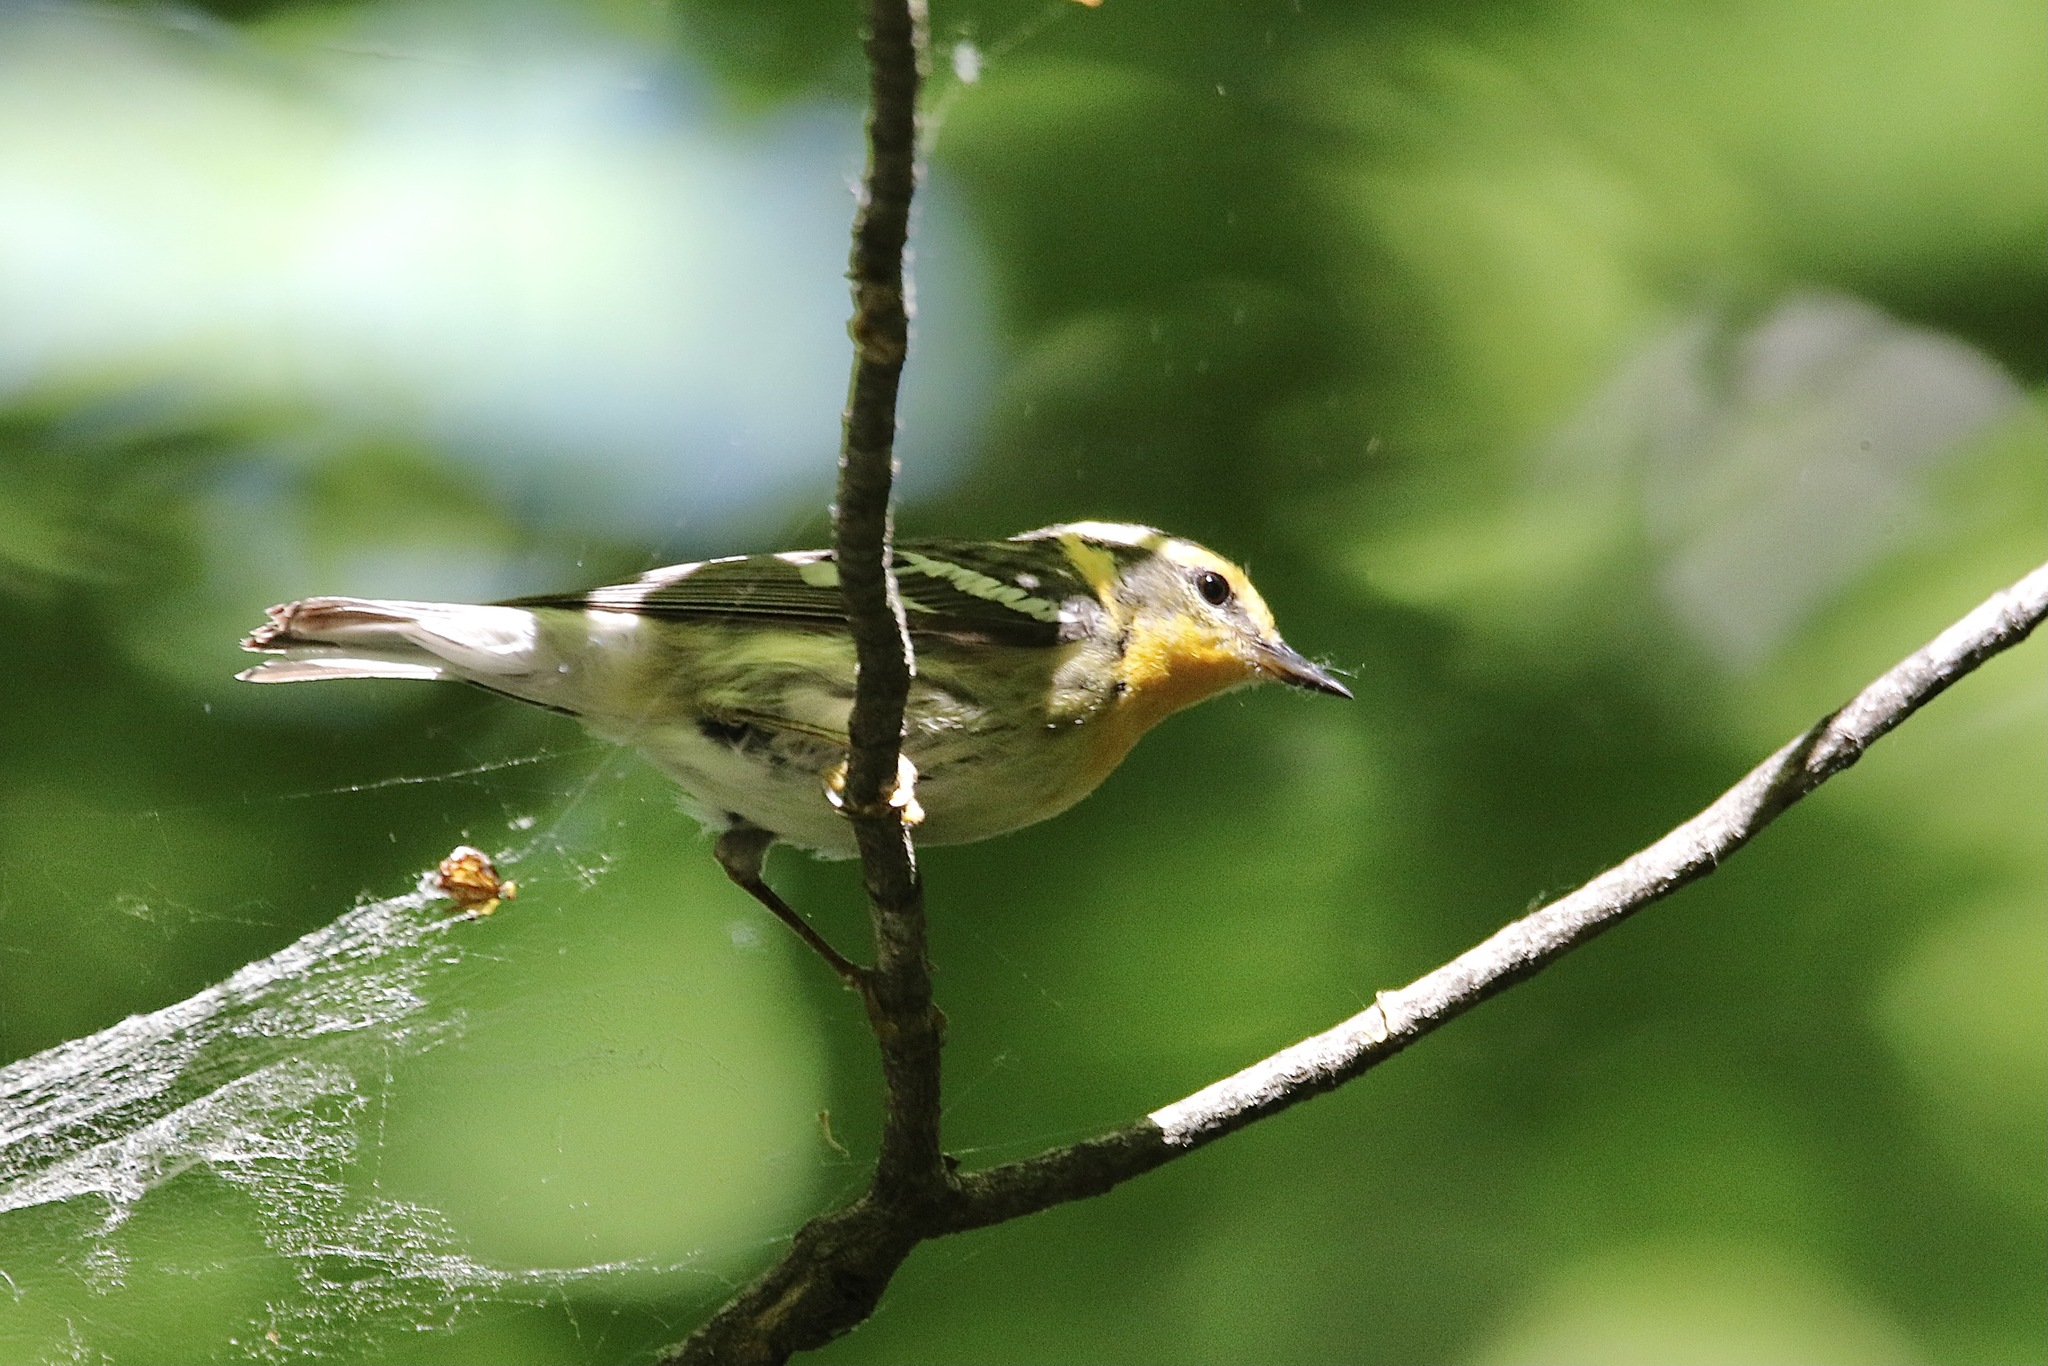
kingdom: Animalia
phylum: Chordata
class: Aves
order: Passeriformes
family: Parulidae
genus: Setophaga
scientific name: Setophaga fusca
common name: Blackburnian warbler
